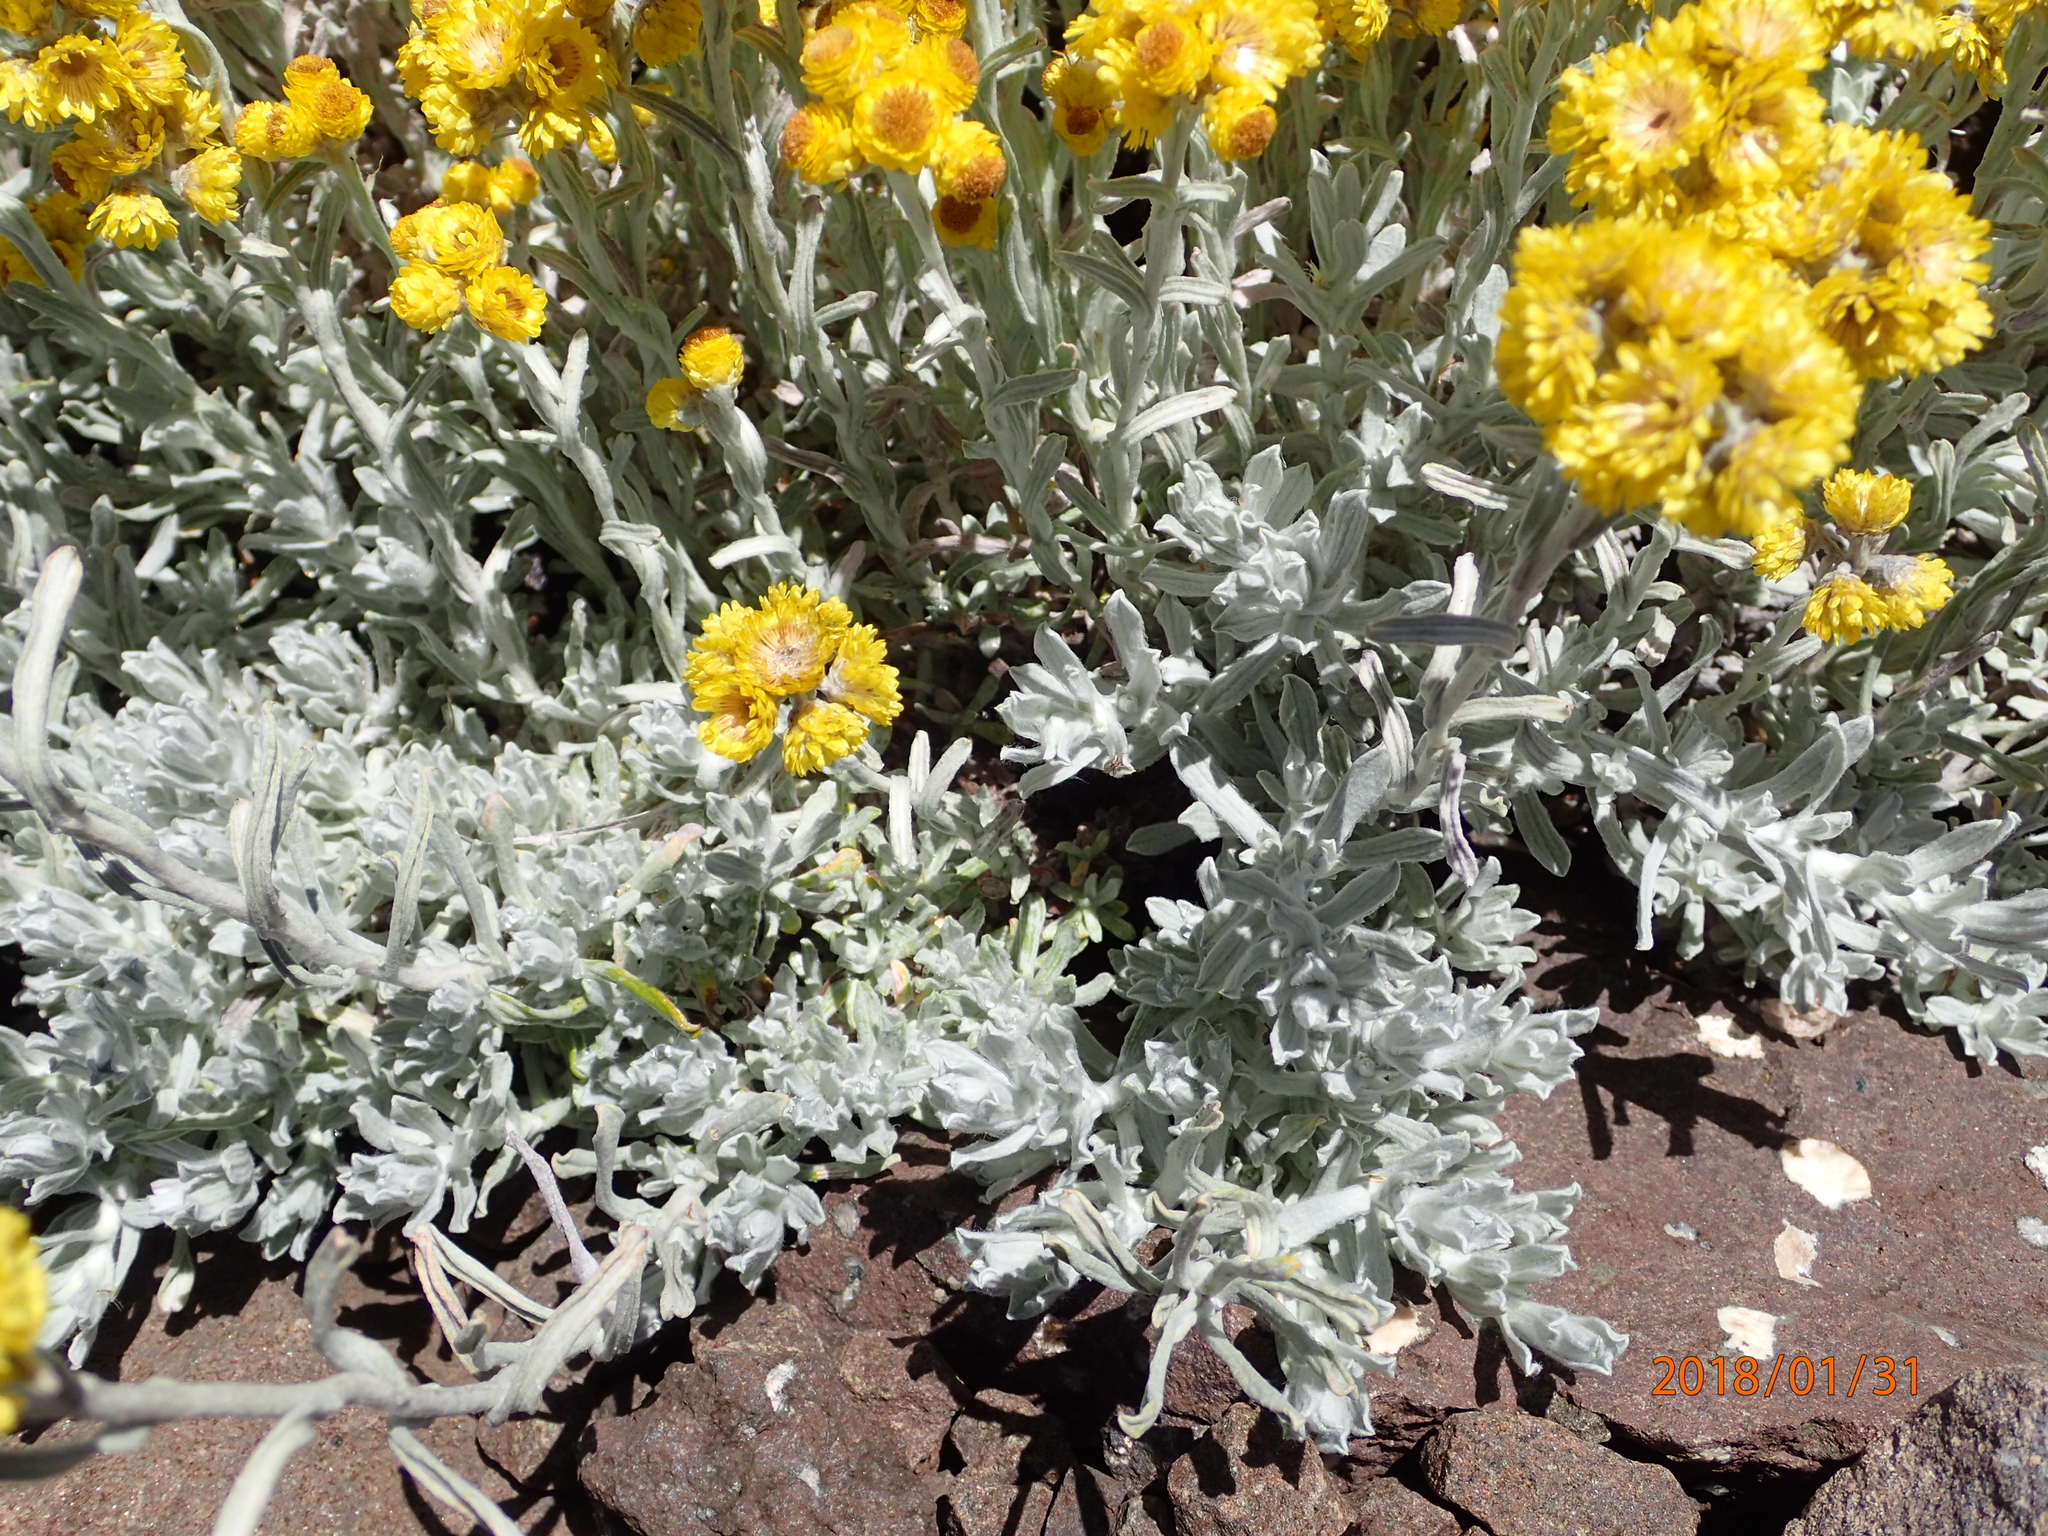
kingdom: Plantae
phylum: Tracheophyta
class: Magnoliopsida
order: Asterales
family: Asteraceae
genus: Helichrysum
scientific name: Helichrysum trilineatum
